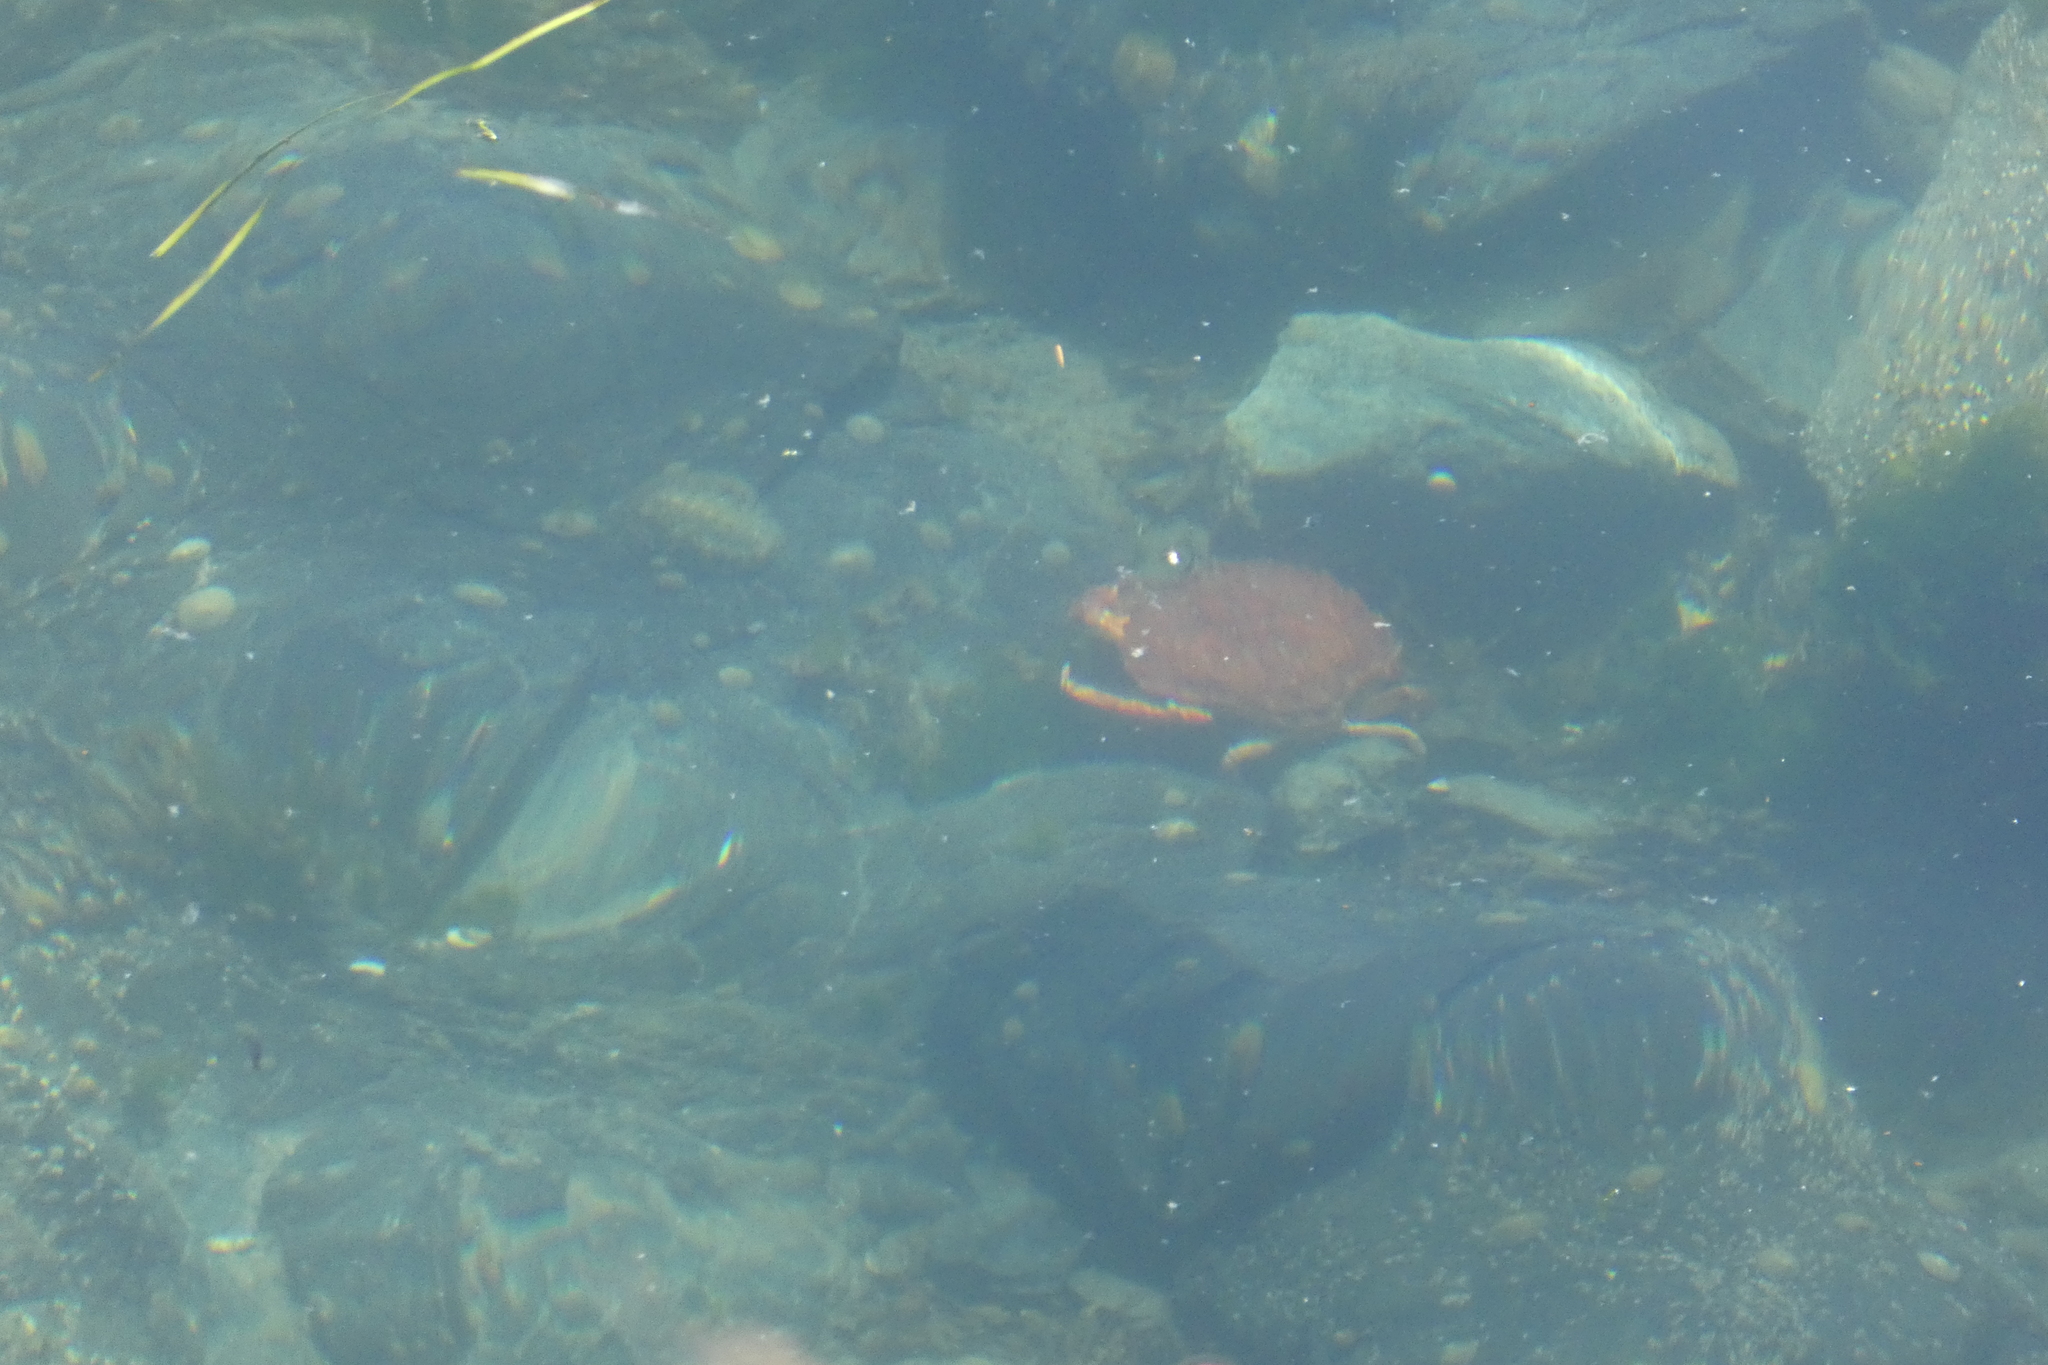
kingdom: Animalia
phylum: Arthropoda
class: Malacostraca
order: Decapoda
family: Cancridae
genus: Cancer
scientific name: Cancer productus
